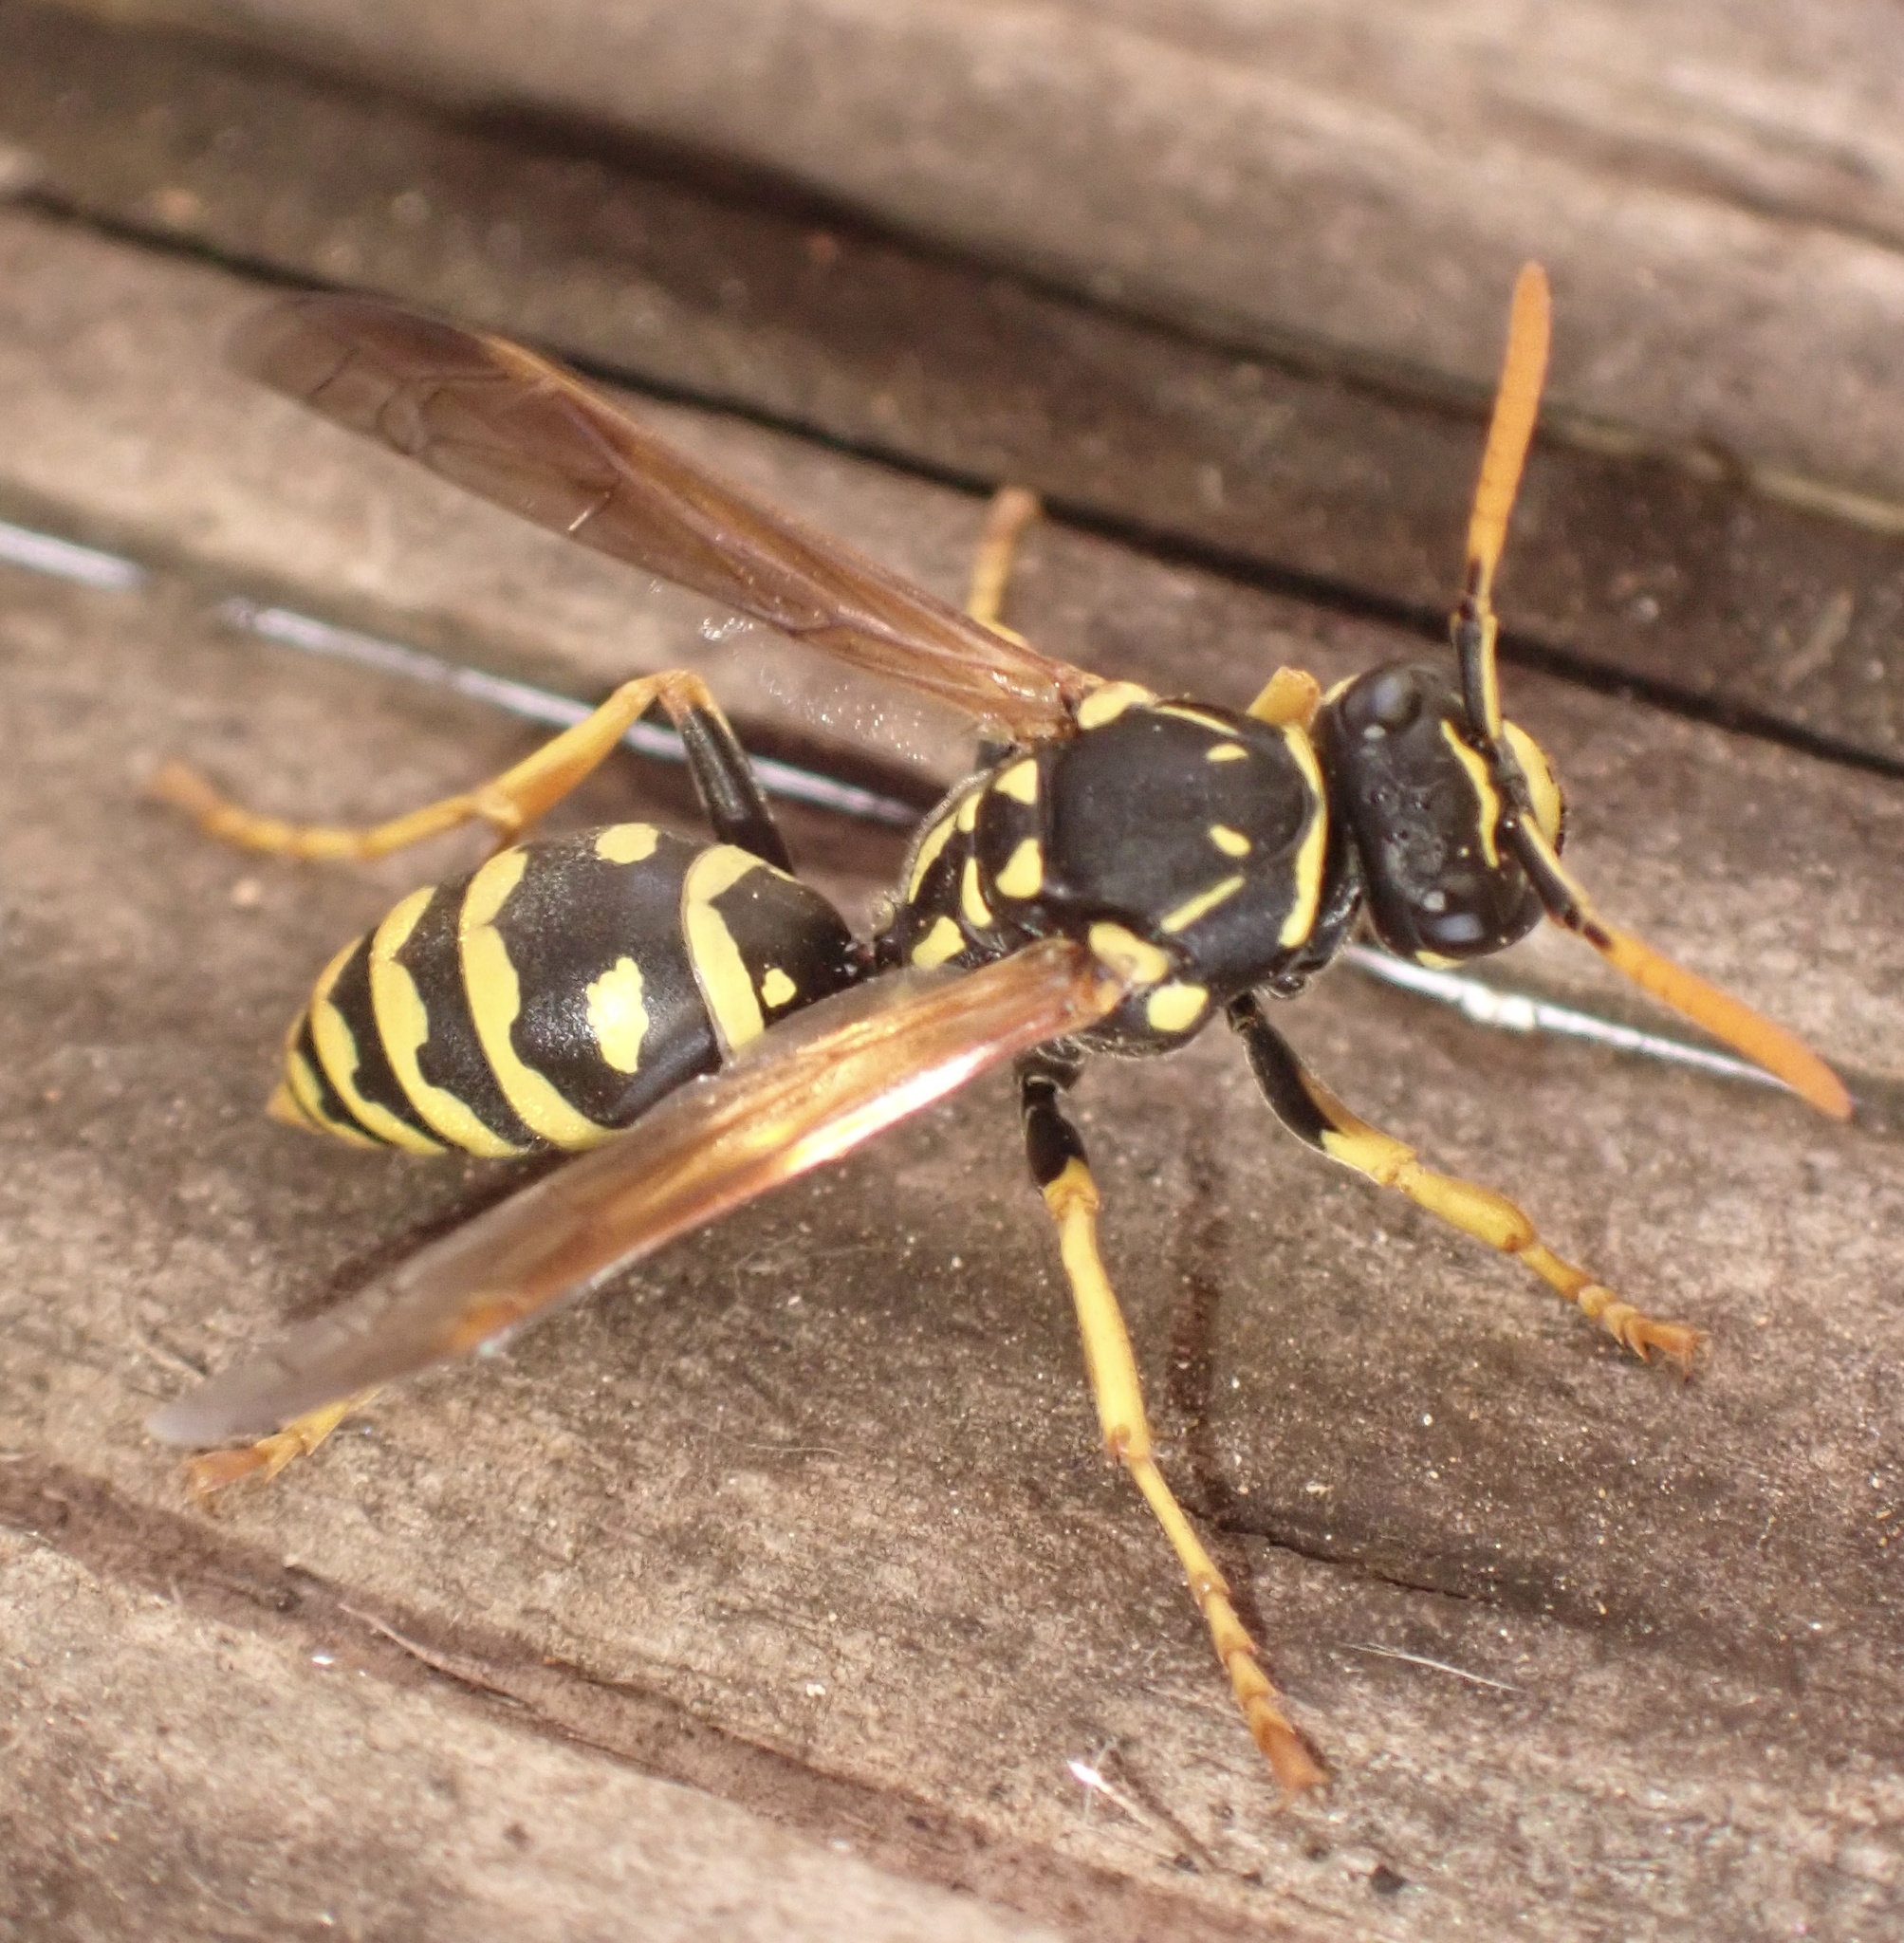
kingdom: Animalia
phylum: Arthropoda
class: Insecta
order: Hymenoptera
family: Eumenidae
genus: Polistes
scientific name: Polistes dominula
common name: Paper wasp
